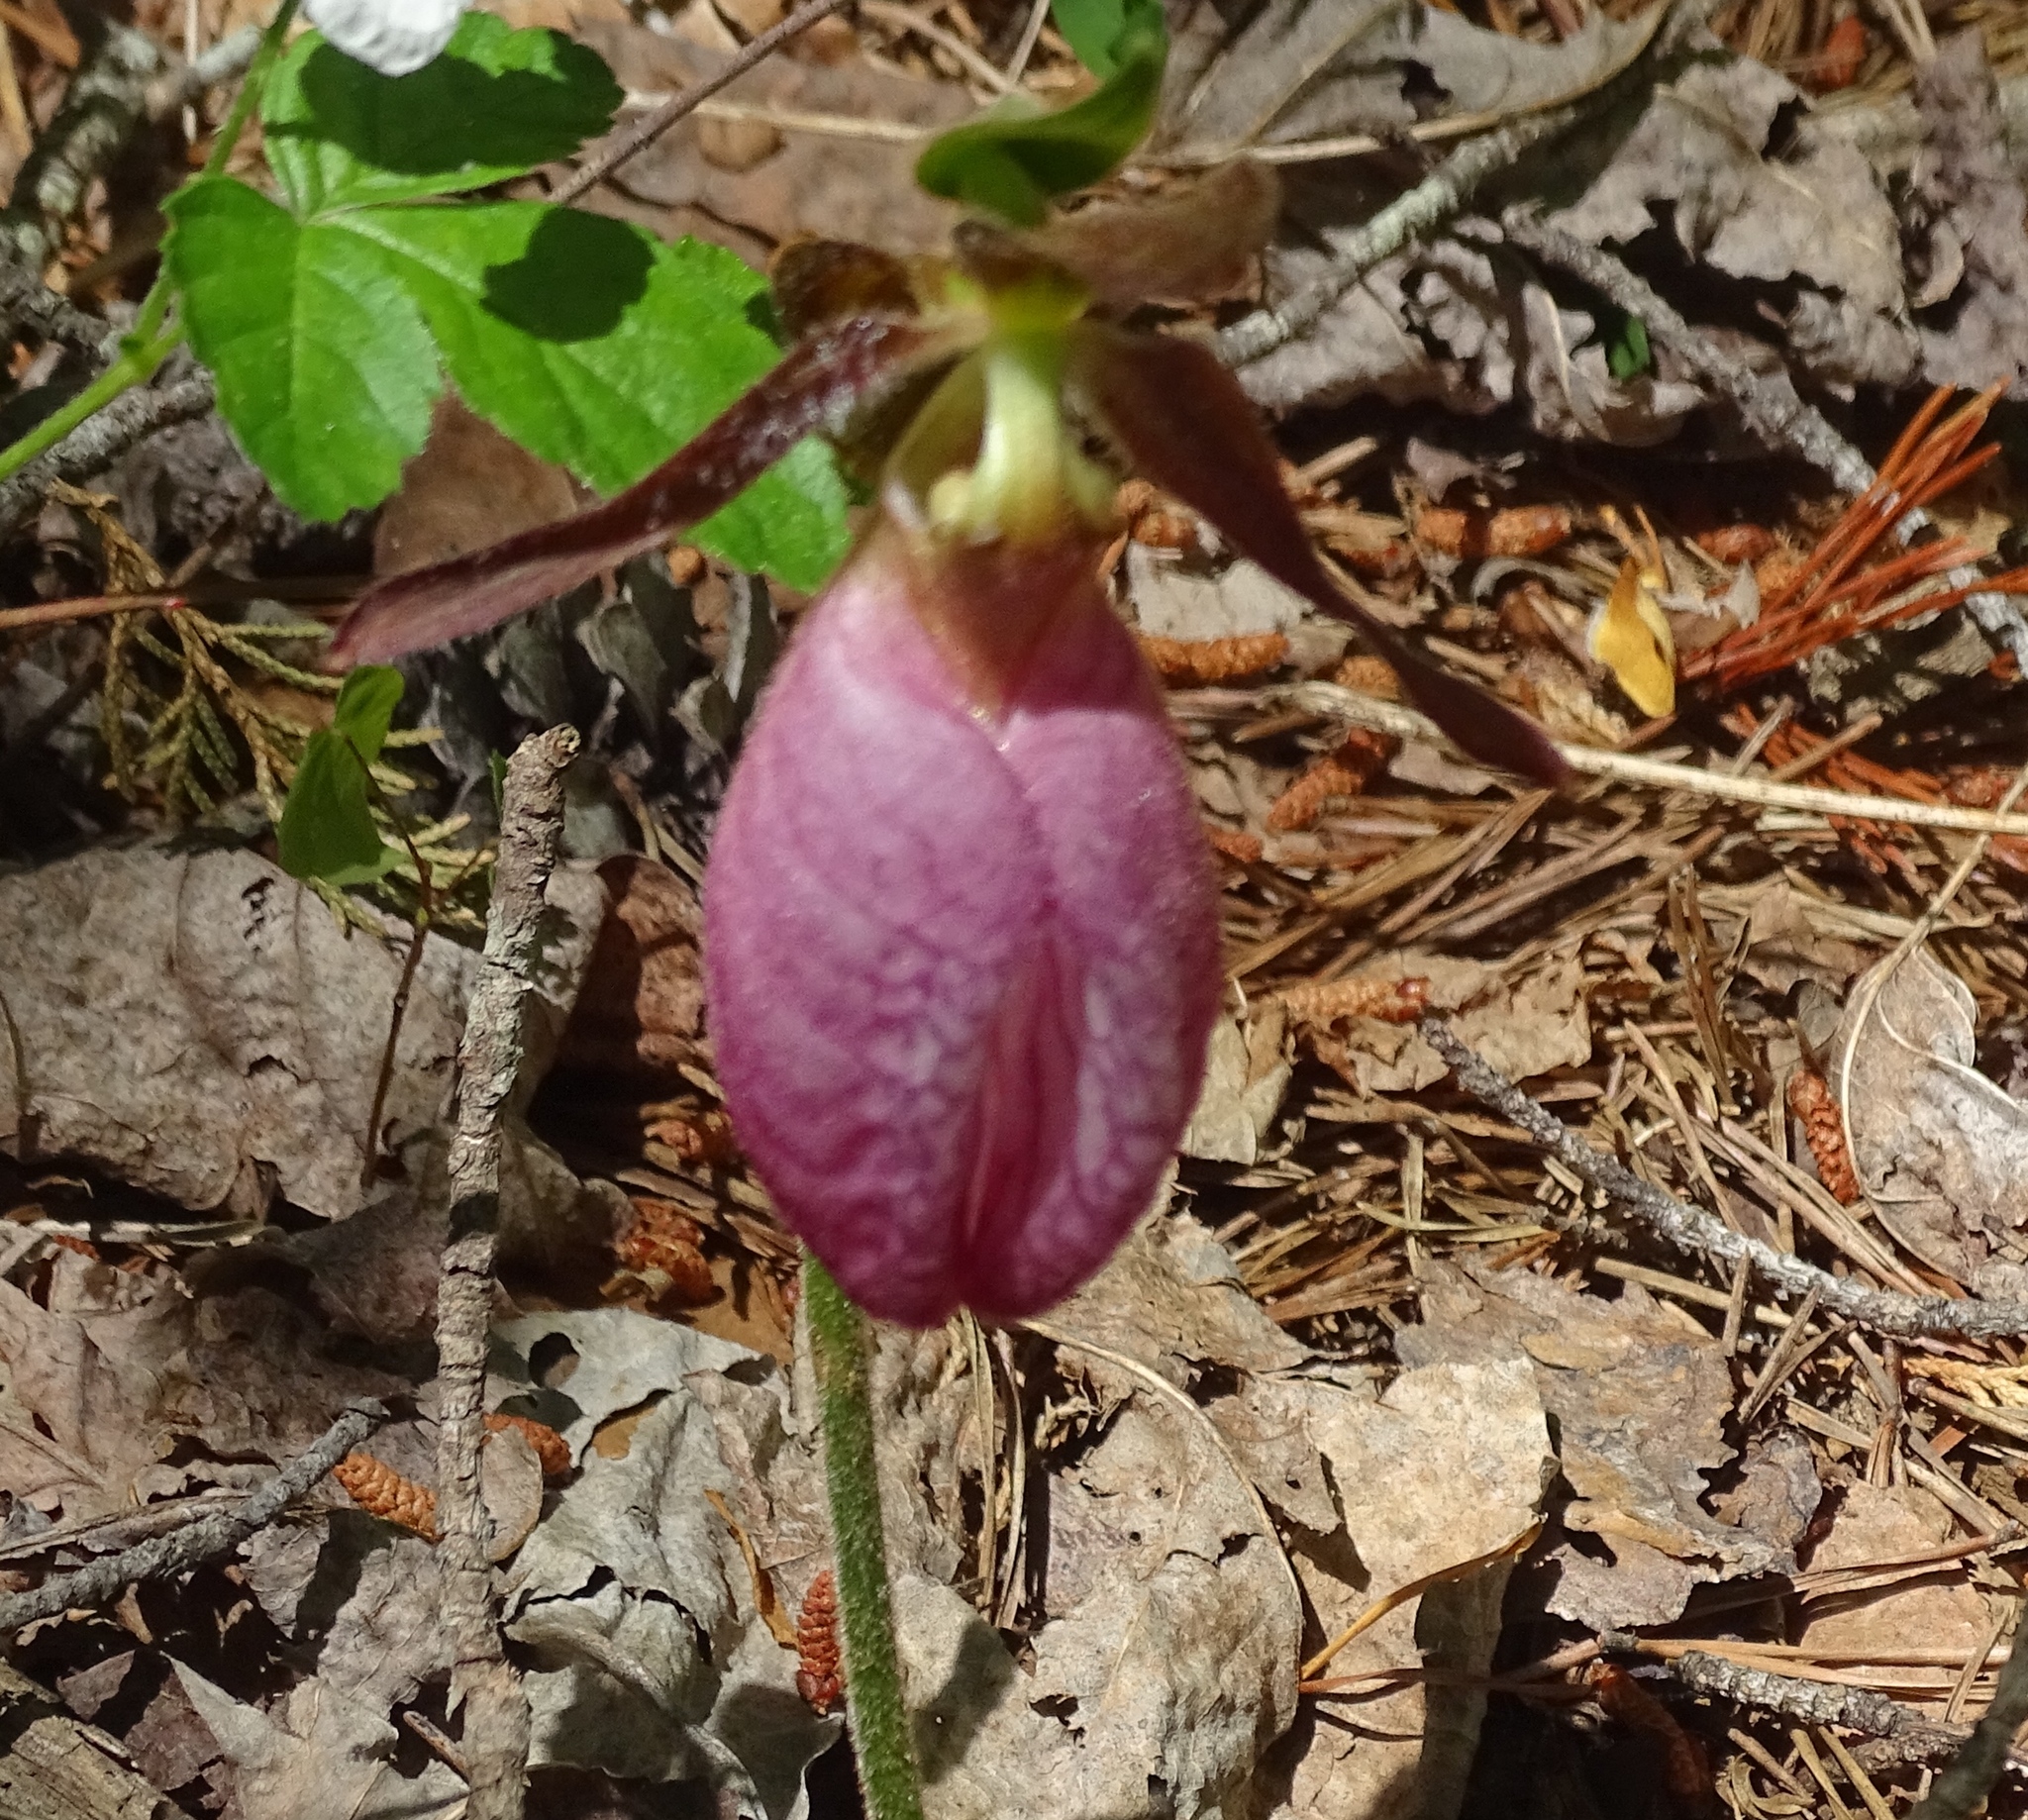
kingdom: Plantae
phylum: Tracheophyta
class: Liliopsida
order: Asparagales
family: Orchidaceae
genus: Cypripedium
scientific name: Cypripedium acaule
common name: Pink lady's-slipper
